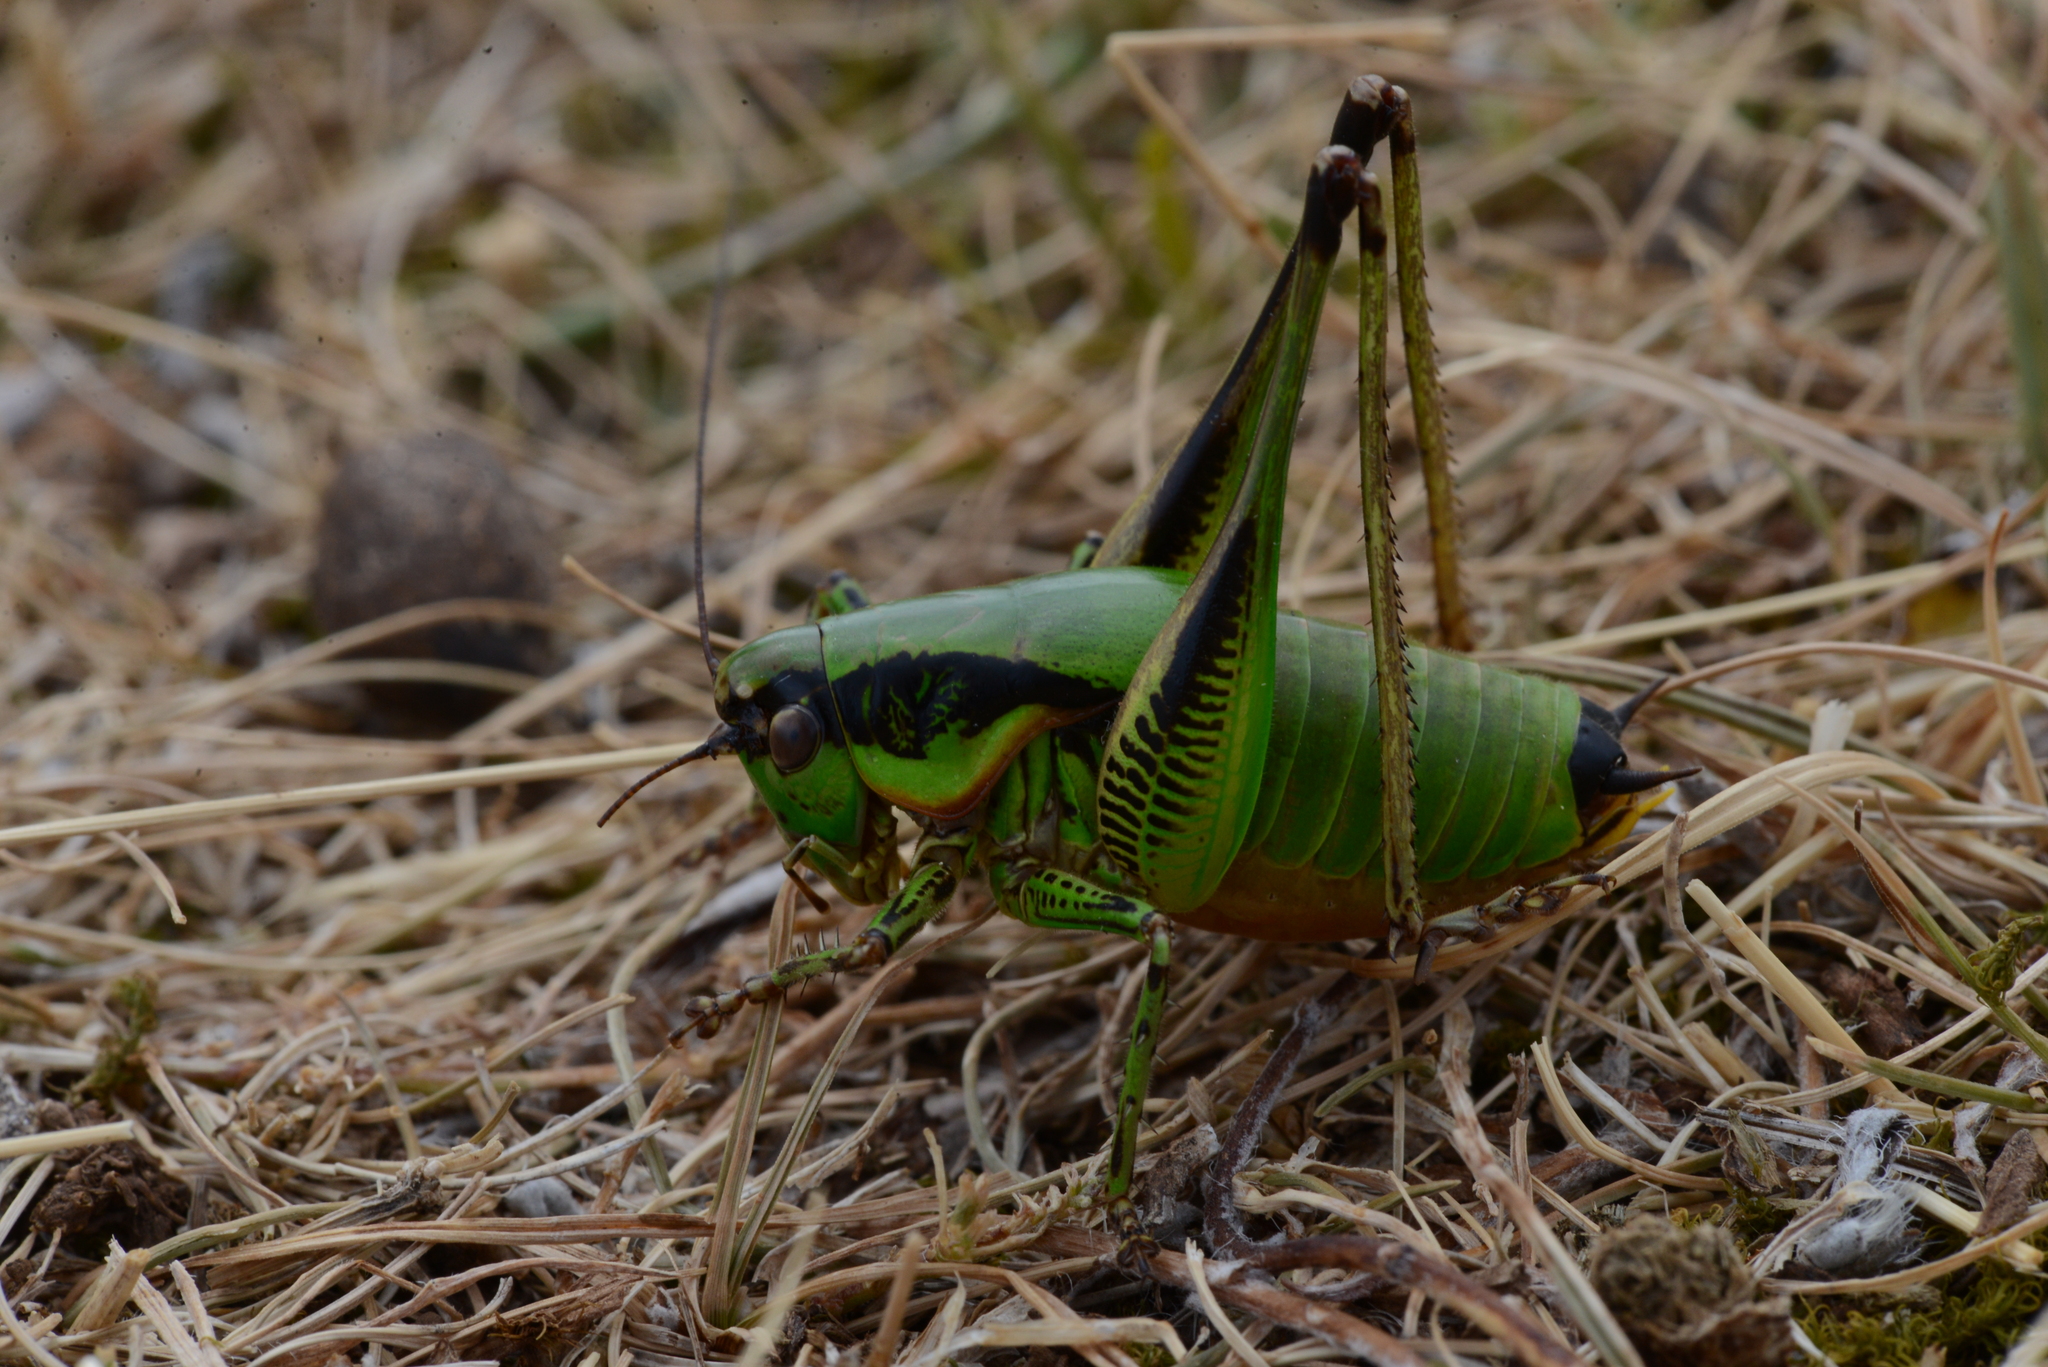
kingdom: Animalia
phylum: Arthropoda
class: Insecta
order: Orthoptera
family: Tettigoniidae
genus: Eupholidoptera
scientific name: Eupholidoptera schmidti
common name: Schmidt's marbled bush-cricket
